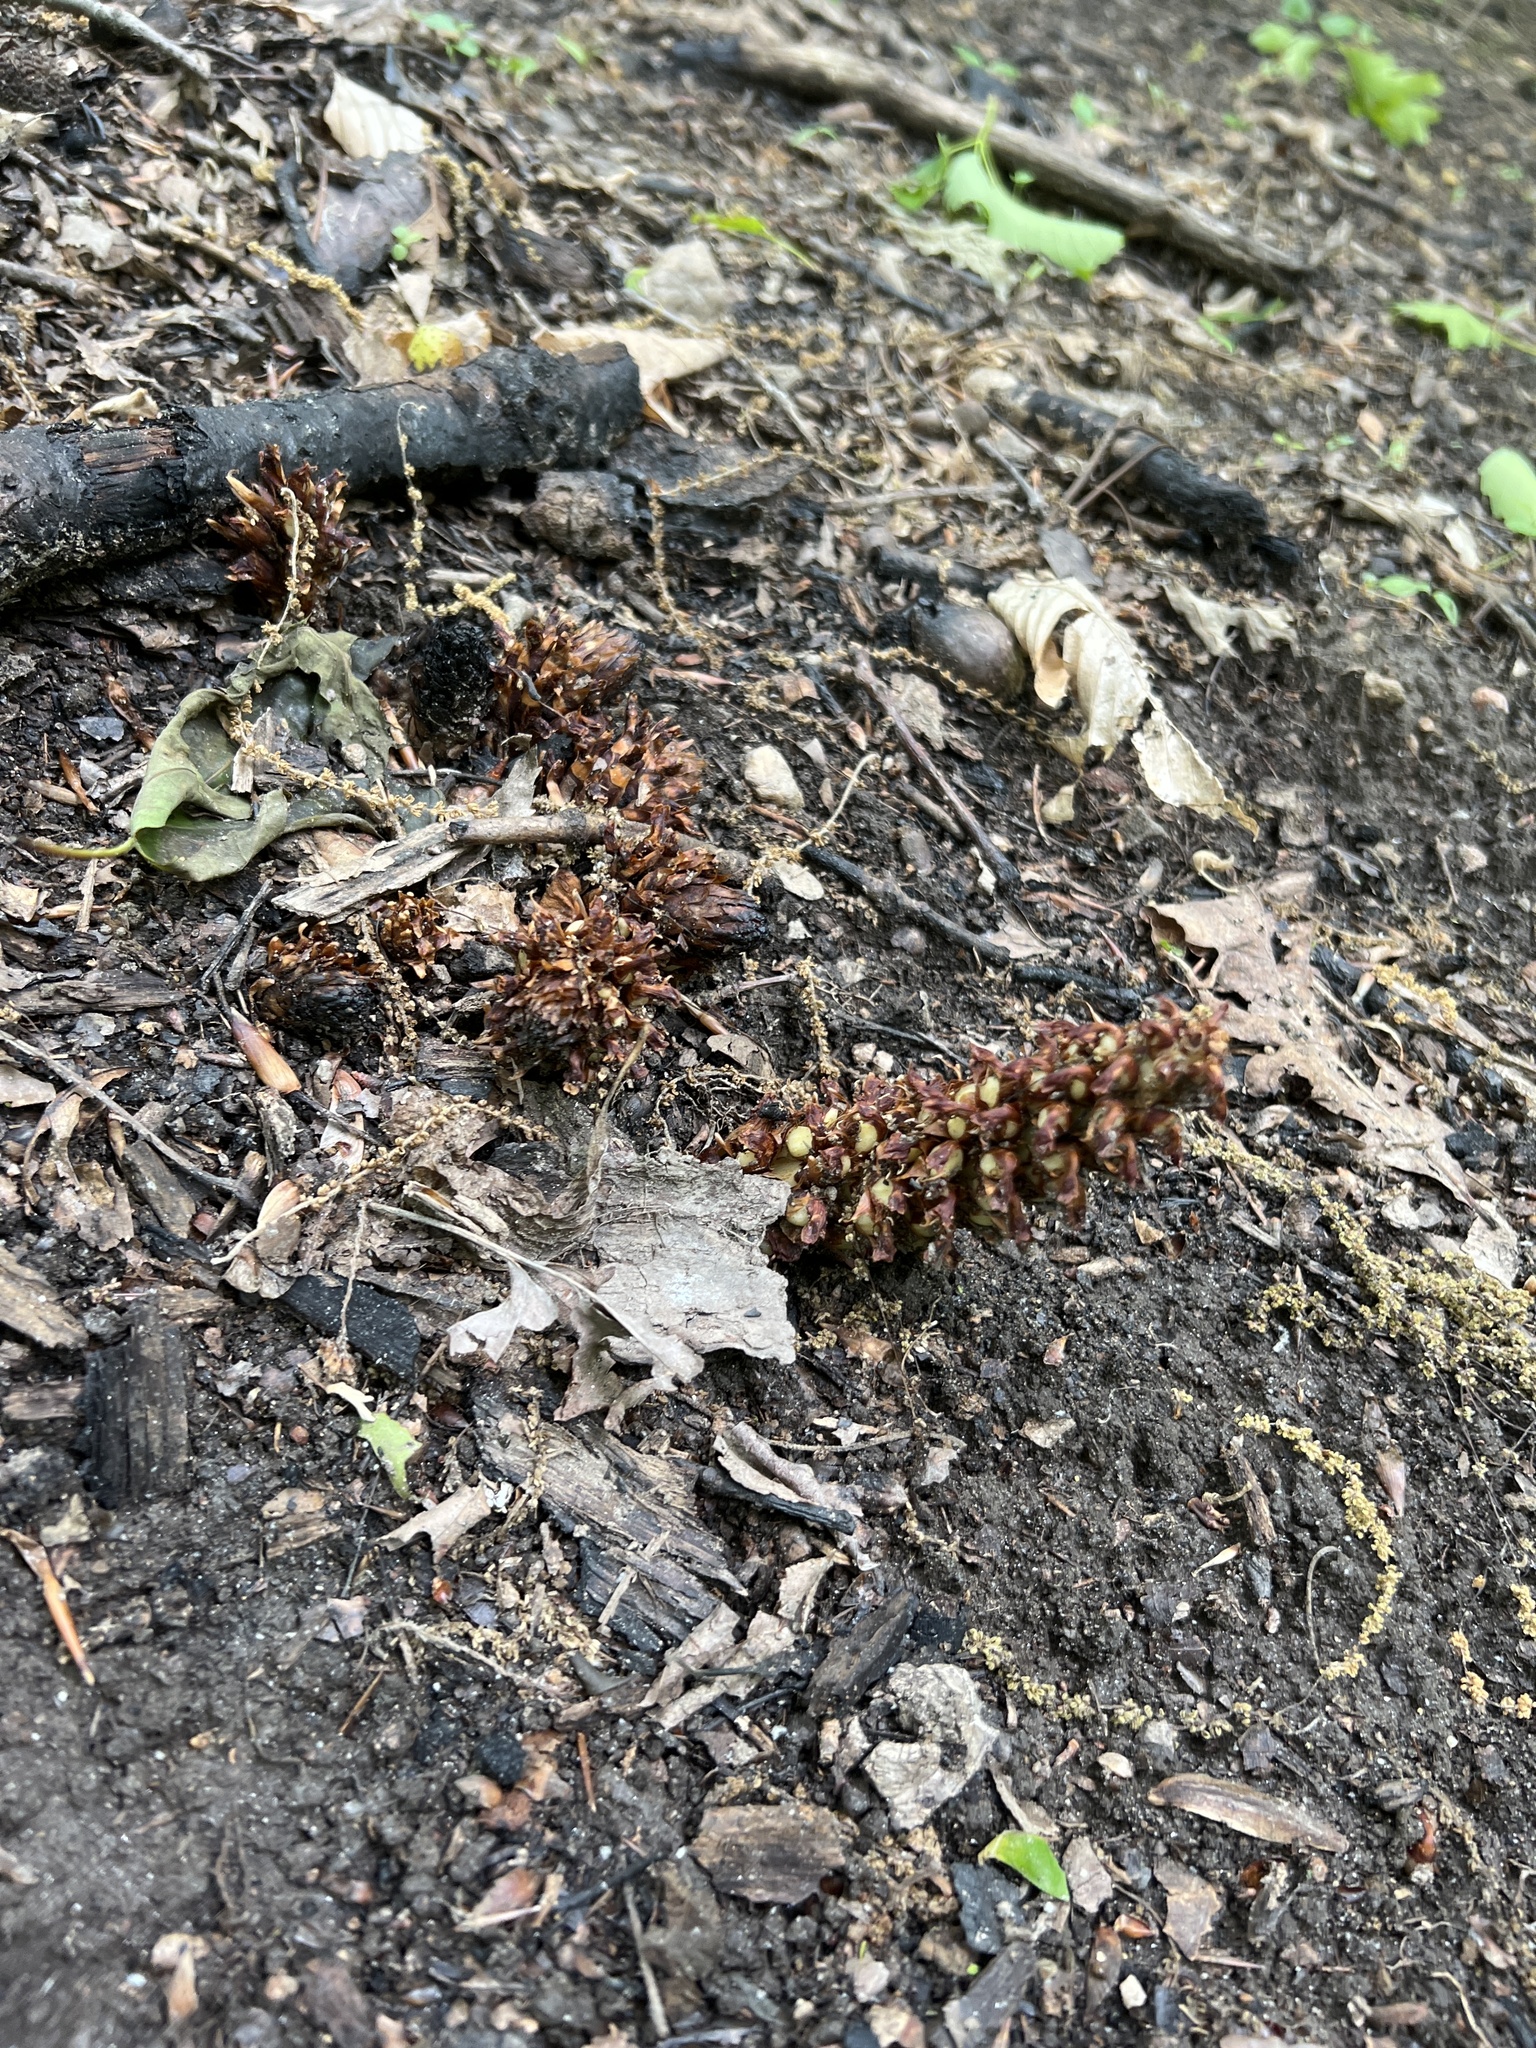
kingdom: Plantae
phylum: Tracheophyta
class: Magnoliopsida
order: Lamiales
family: Orobanchaceae
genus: Conopholis
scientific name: Conopholis americana
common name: American cancer-root
